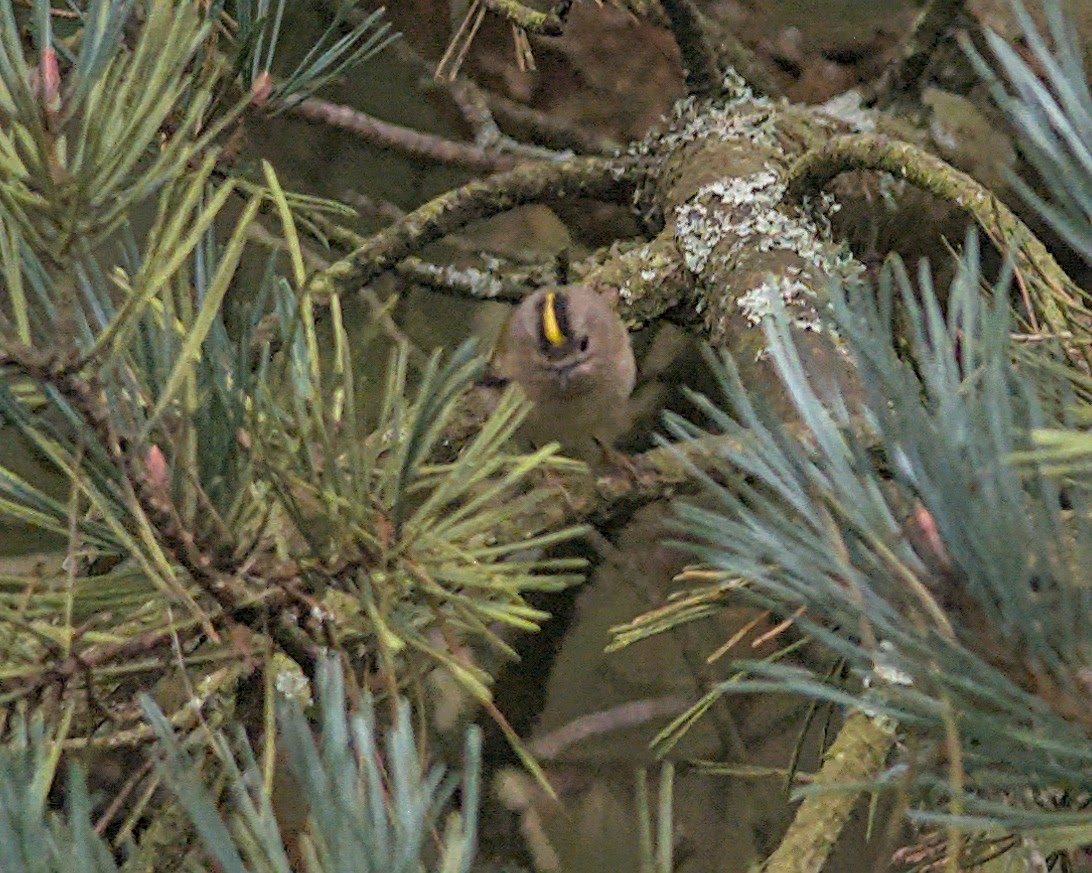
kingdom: Animalia
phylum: Chordata
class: Aves
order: Passeriformes
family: Regulidae
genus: Regulus
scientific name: Regulus regulus
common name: Goldcrest
